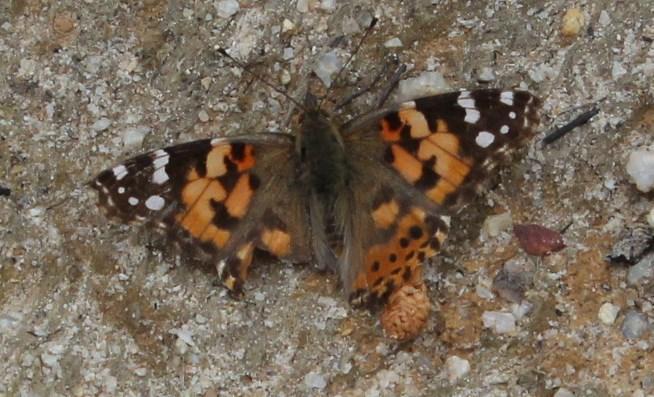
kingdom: Animalia
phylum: Arthropoda
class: Insecta
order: Lepidoptera
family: Nymphalidae
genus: Vanessa
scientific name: Vanessa cardui
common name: Painted lady
